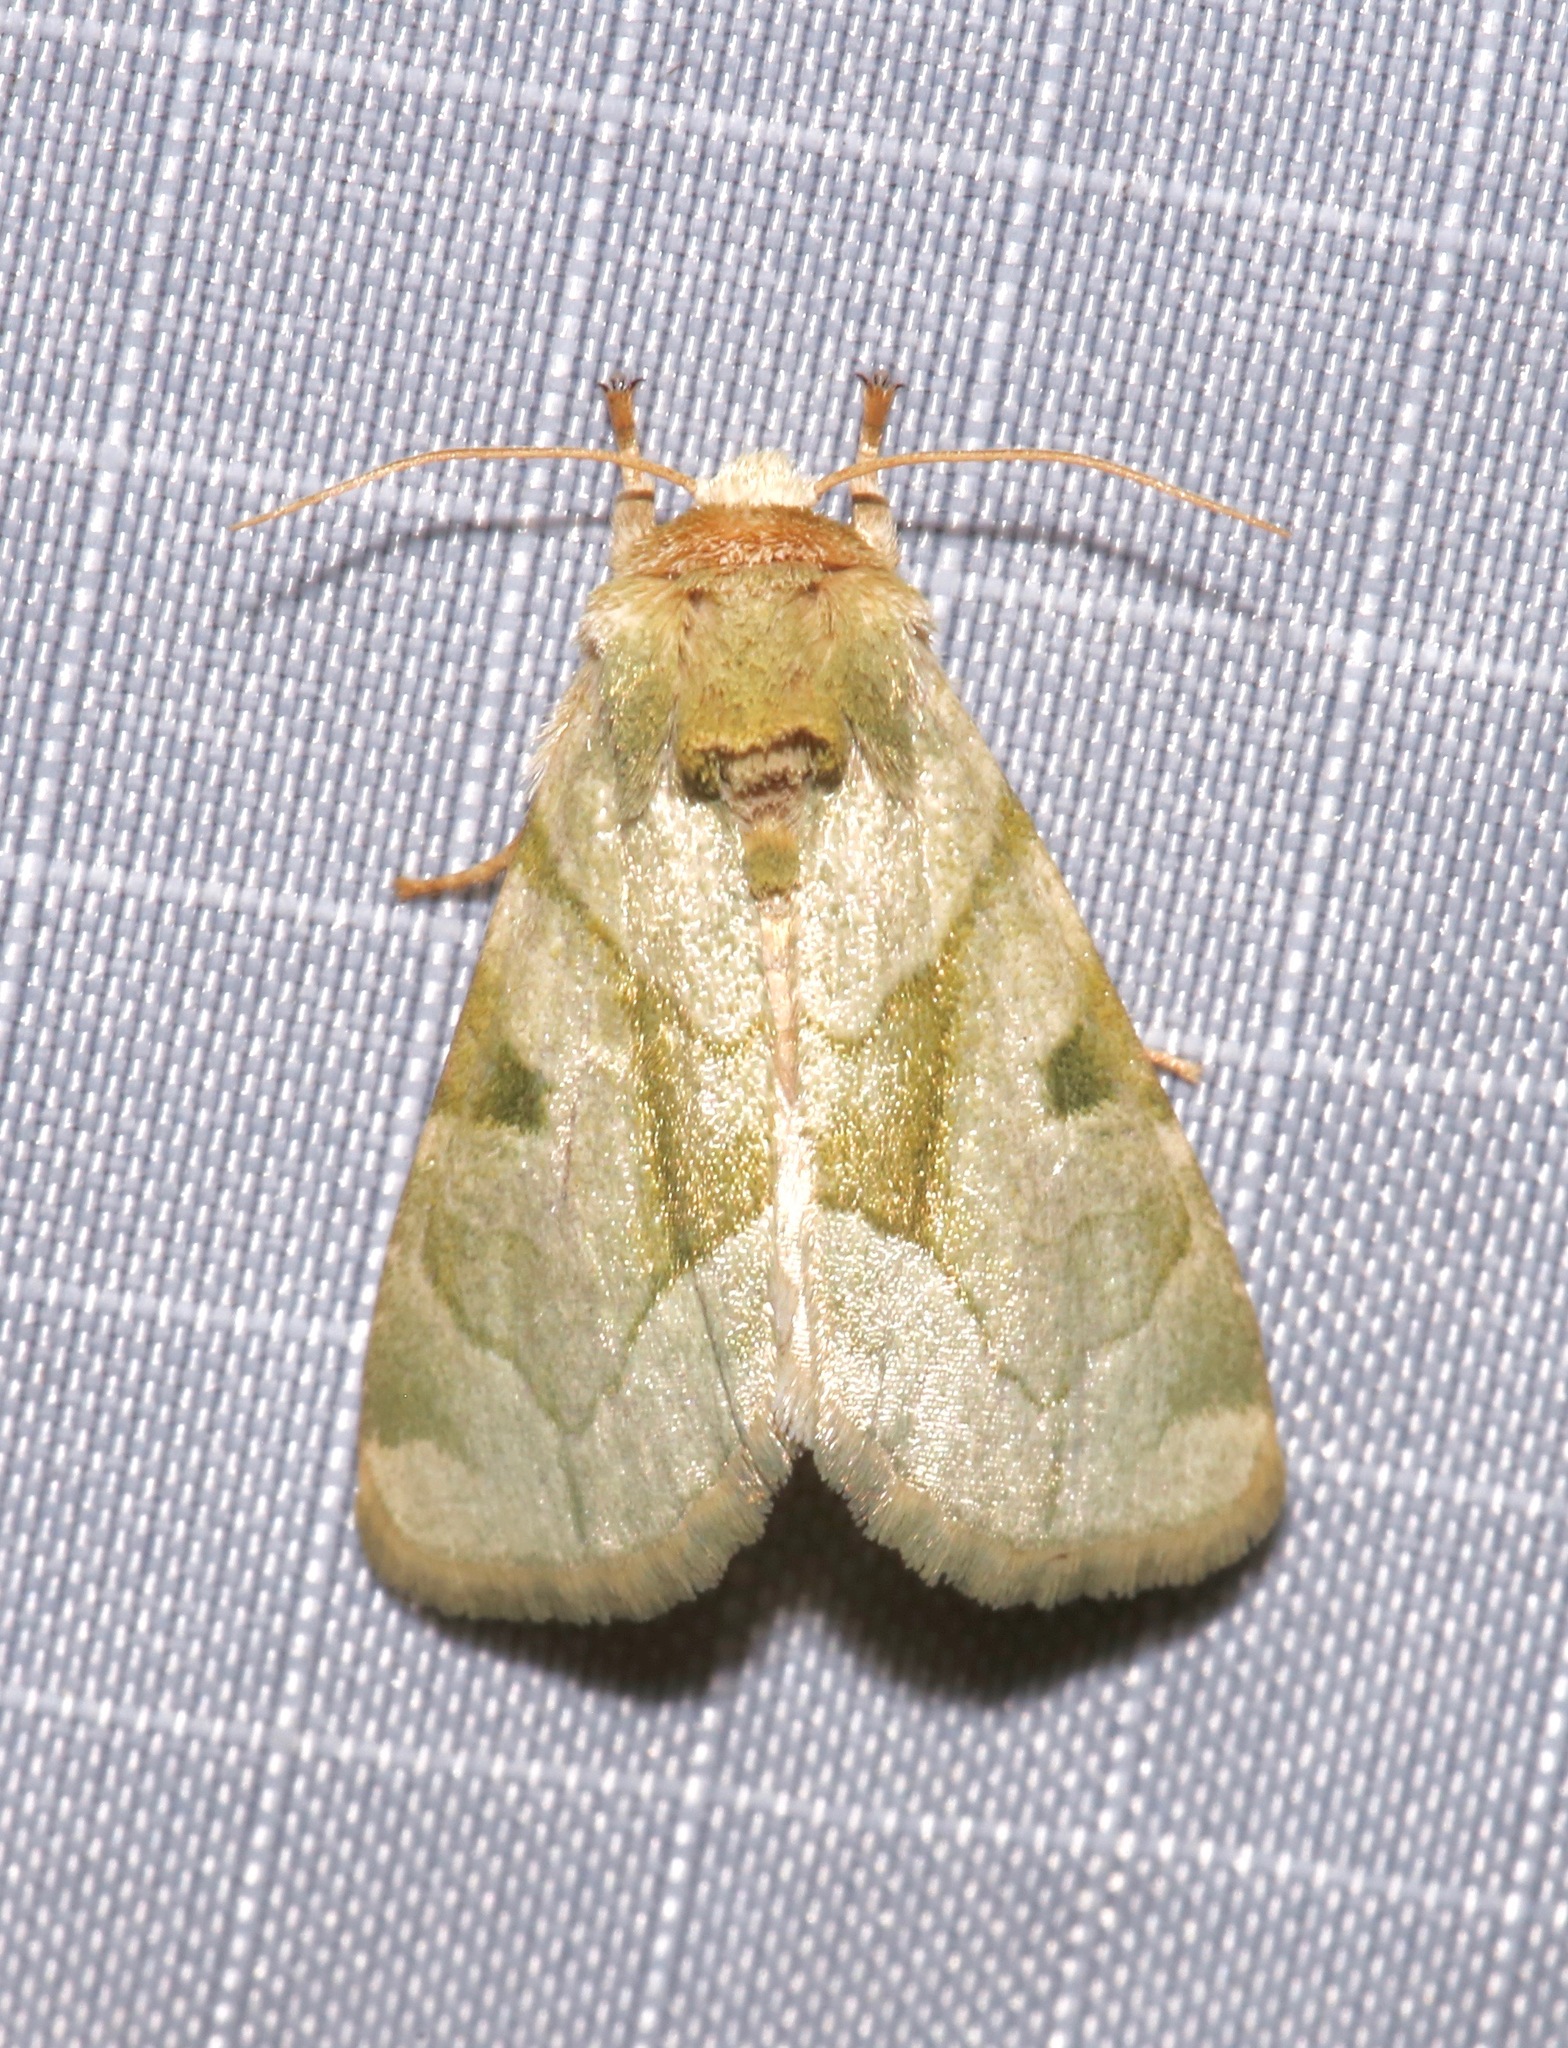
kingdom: Animalia
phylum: Arthropoda
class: Insecta
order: Lepidoptera
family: Noctuidae
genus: Oslaria
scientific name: Oslaria viridifera
